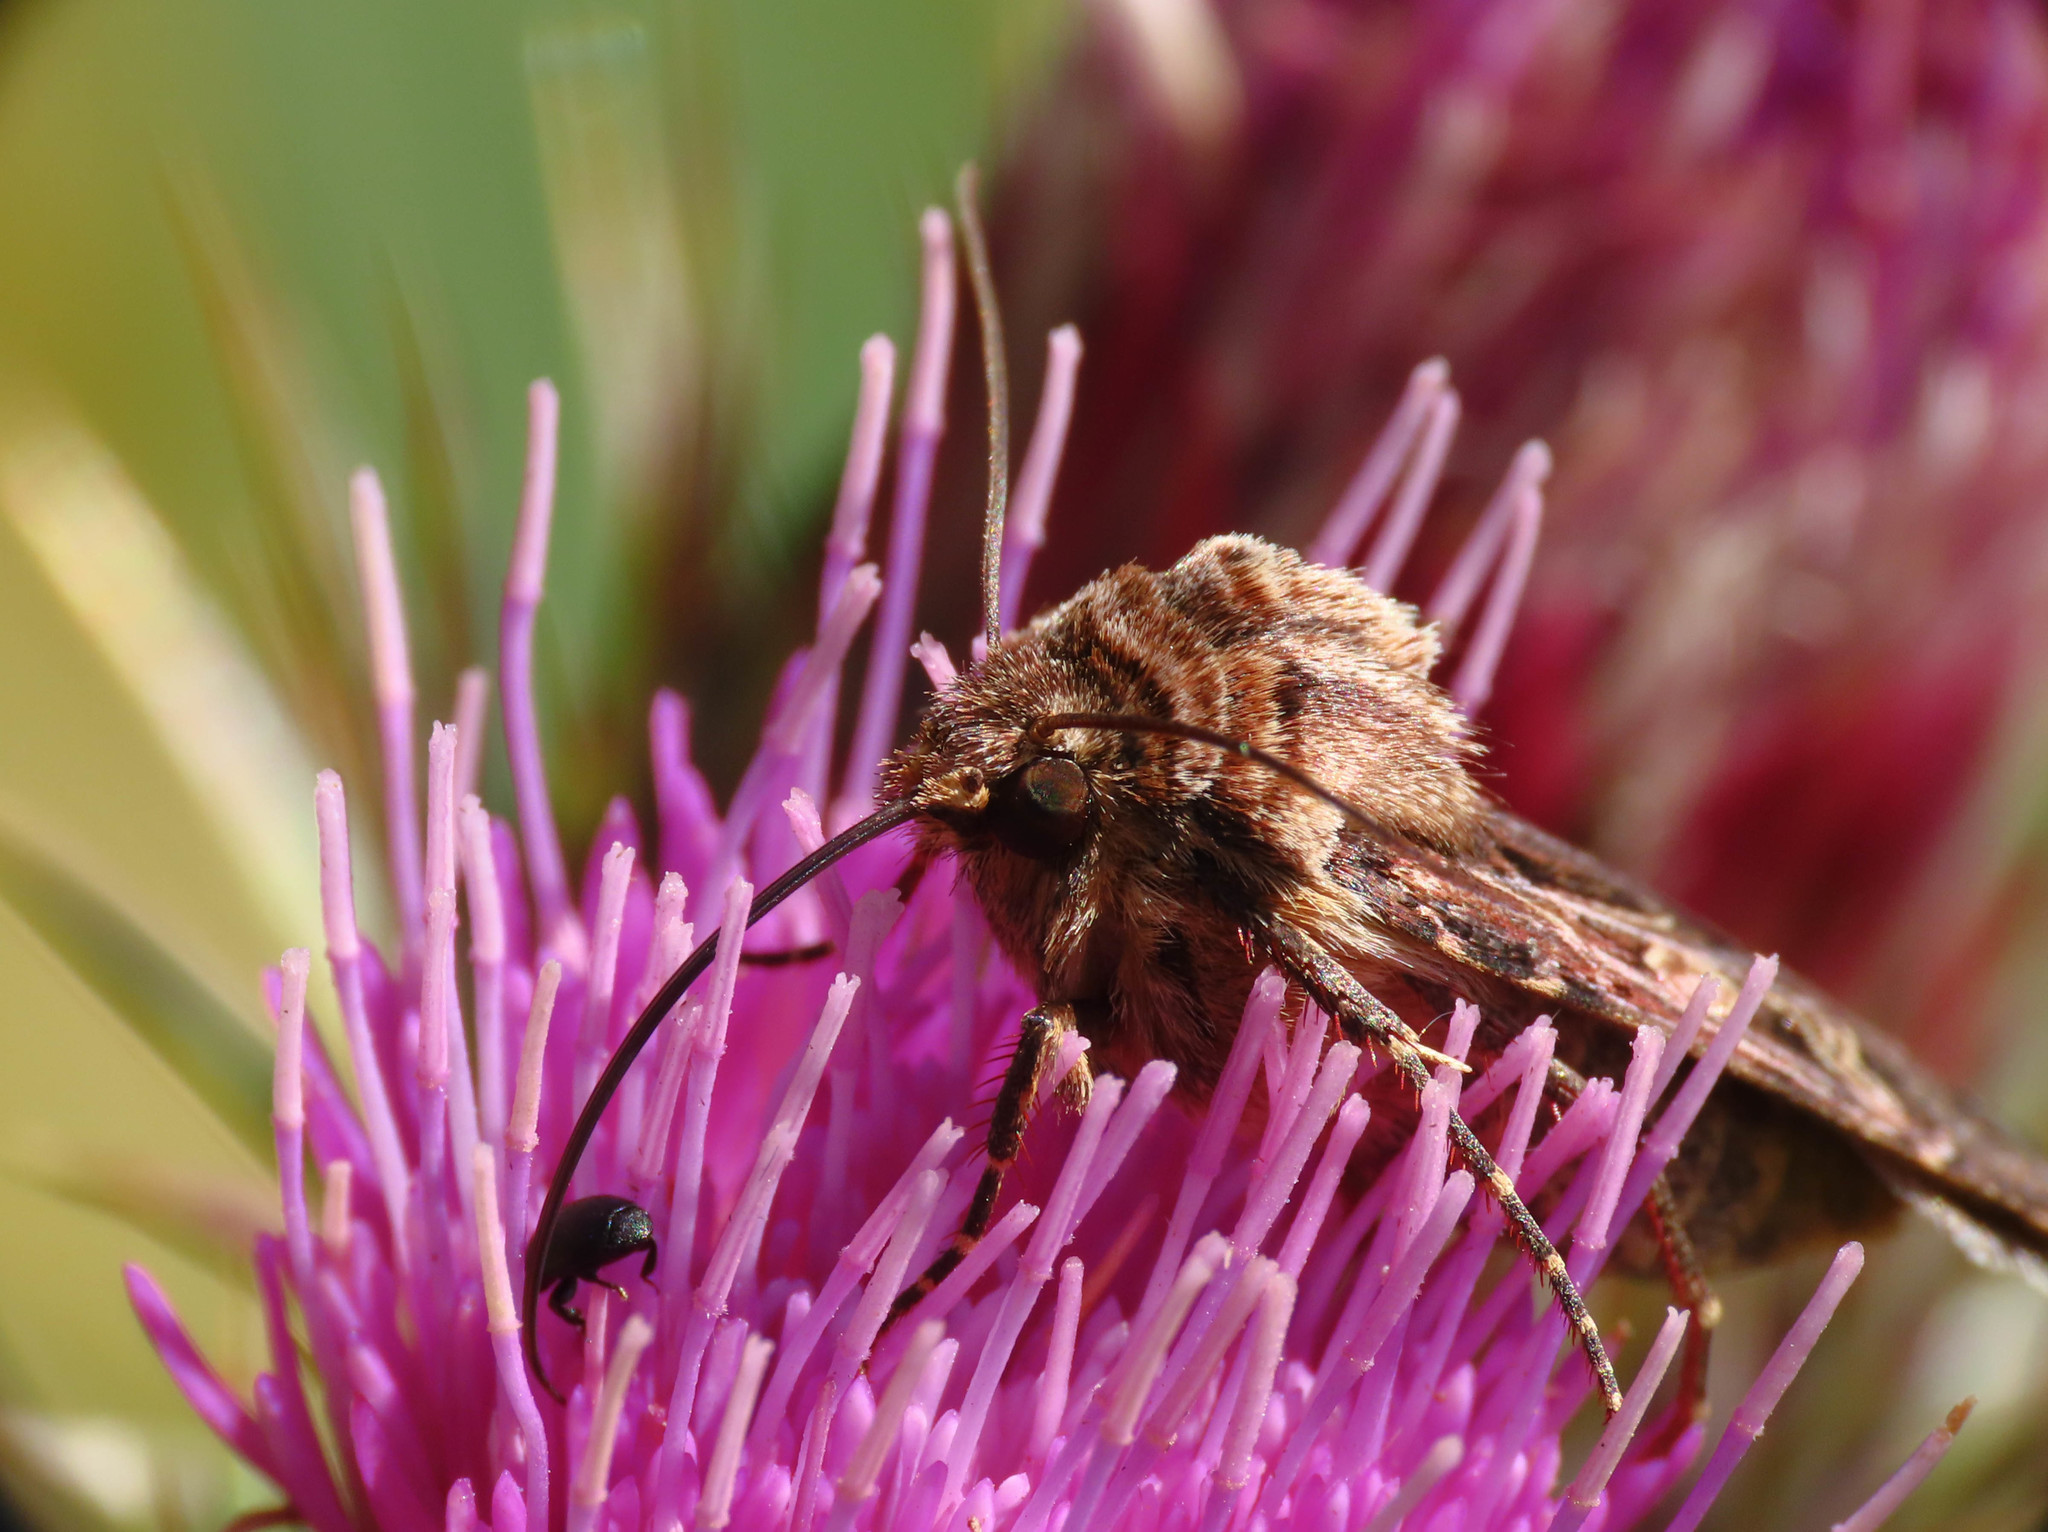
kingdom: Animalia
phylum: Arthropoda
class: Insecta
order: Lepidoptera
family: Noctuidae
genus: Chersotis
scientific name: Chersotis oreina
